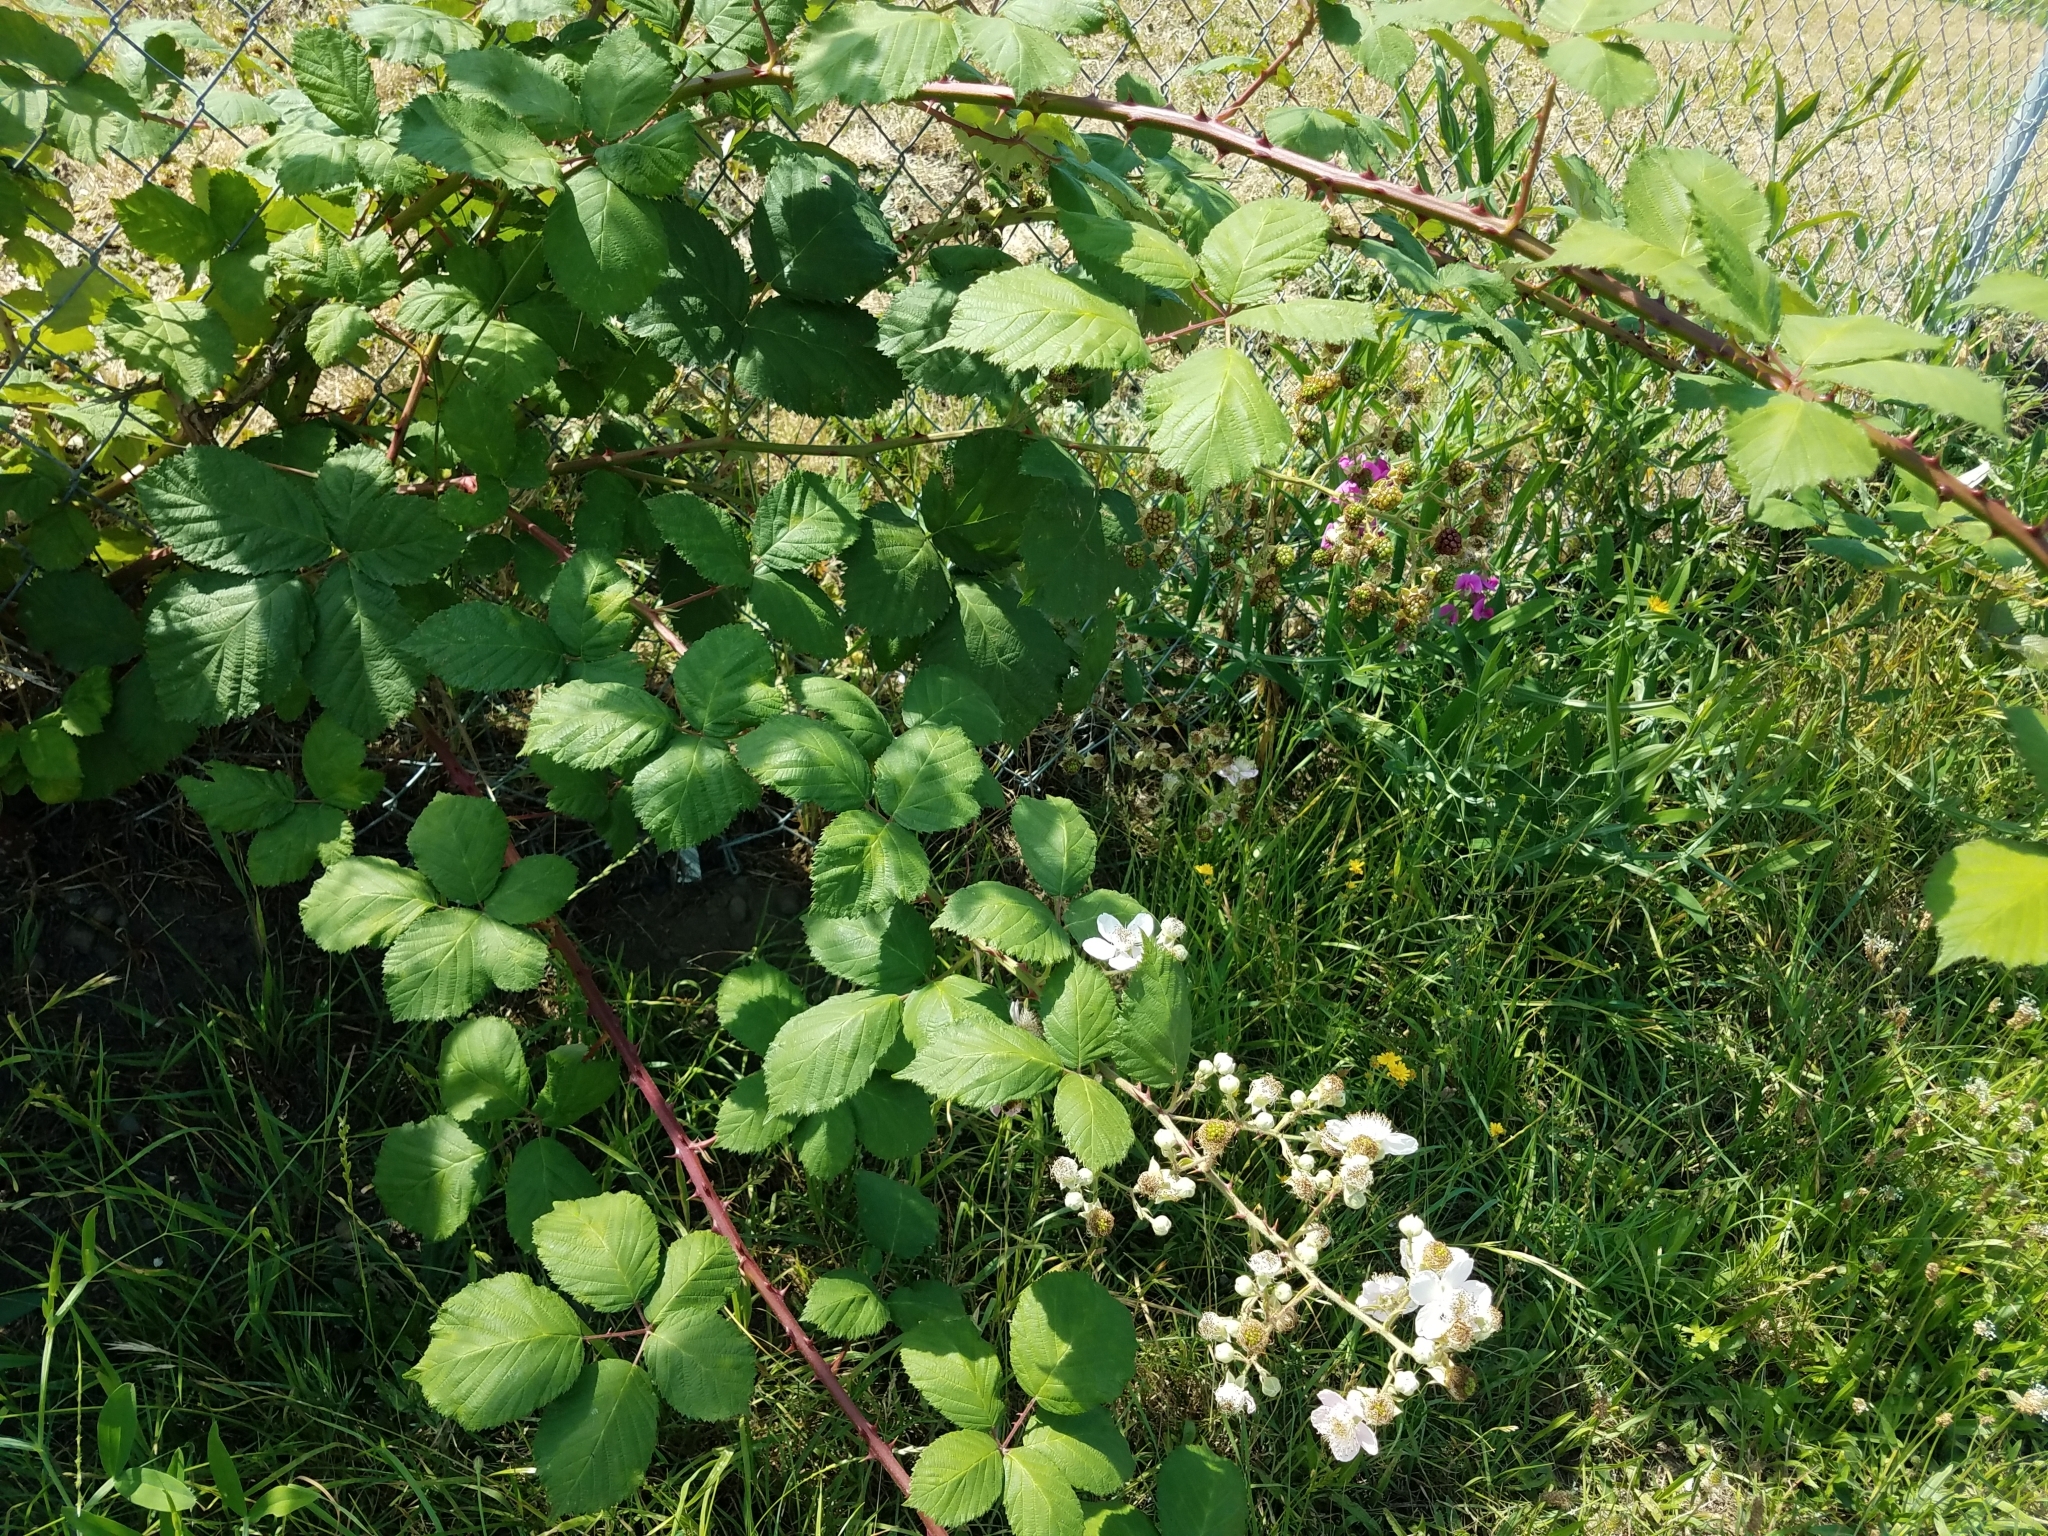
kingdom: Plantae
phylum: Tracheophyta
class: Magnoliopsida
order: Rosales
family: Rosaceae
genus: Rubus
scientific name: Rubus bifrons
